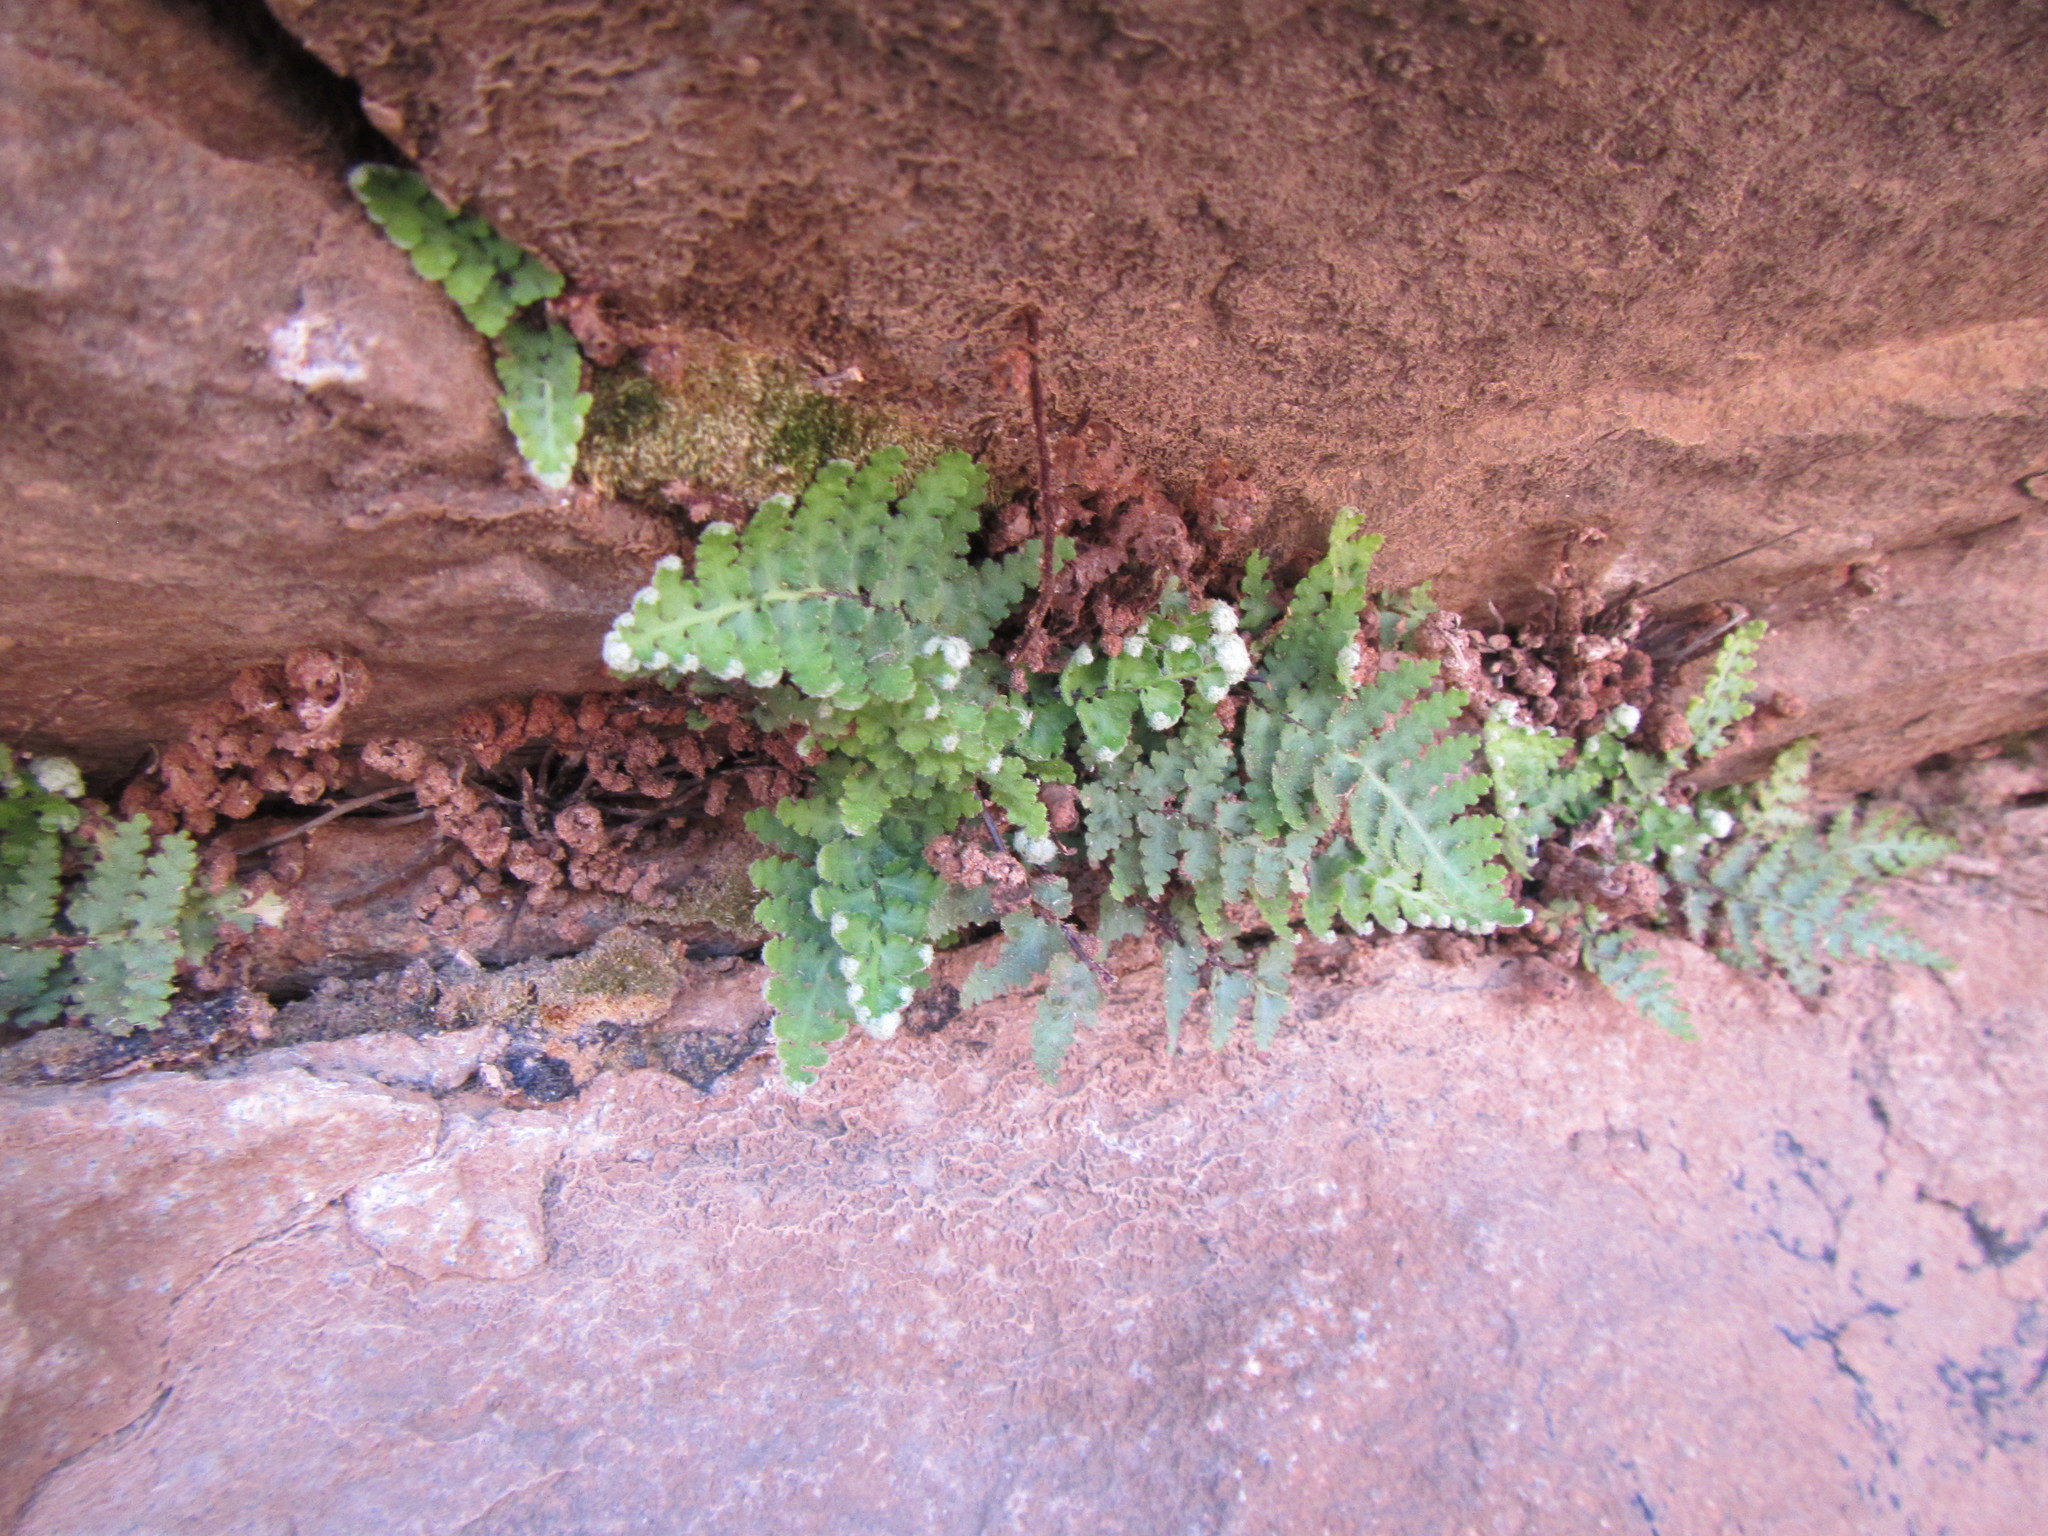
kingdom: Plantae
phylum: Tracheophyta
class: Polypodiopsida
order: Polypodiales
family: Aspleniaceae
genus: Asplenium
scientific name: Asplenium cordatum
